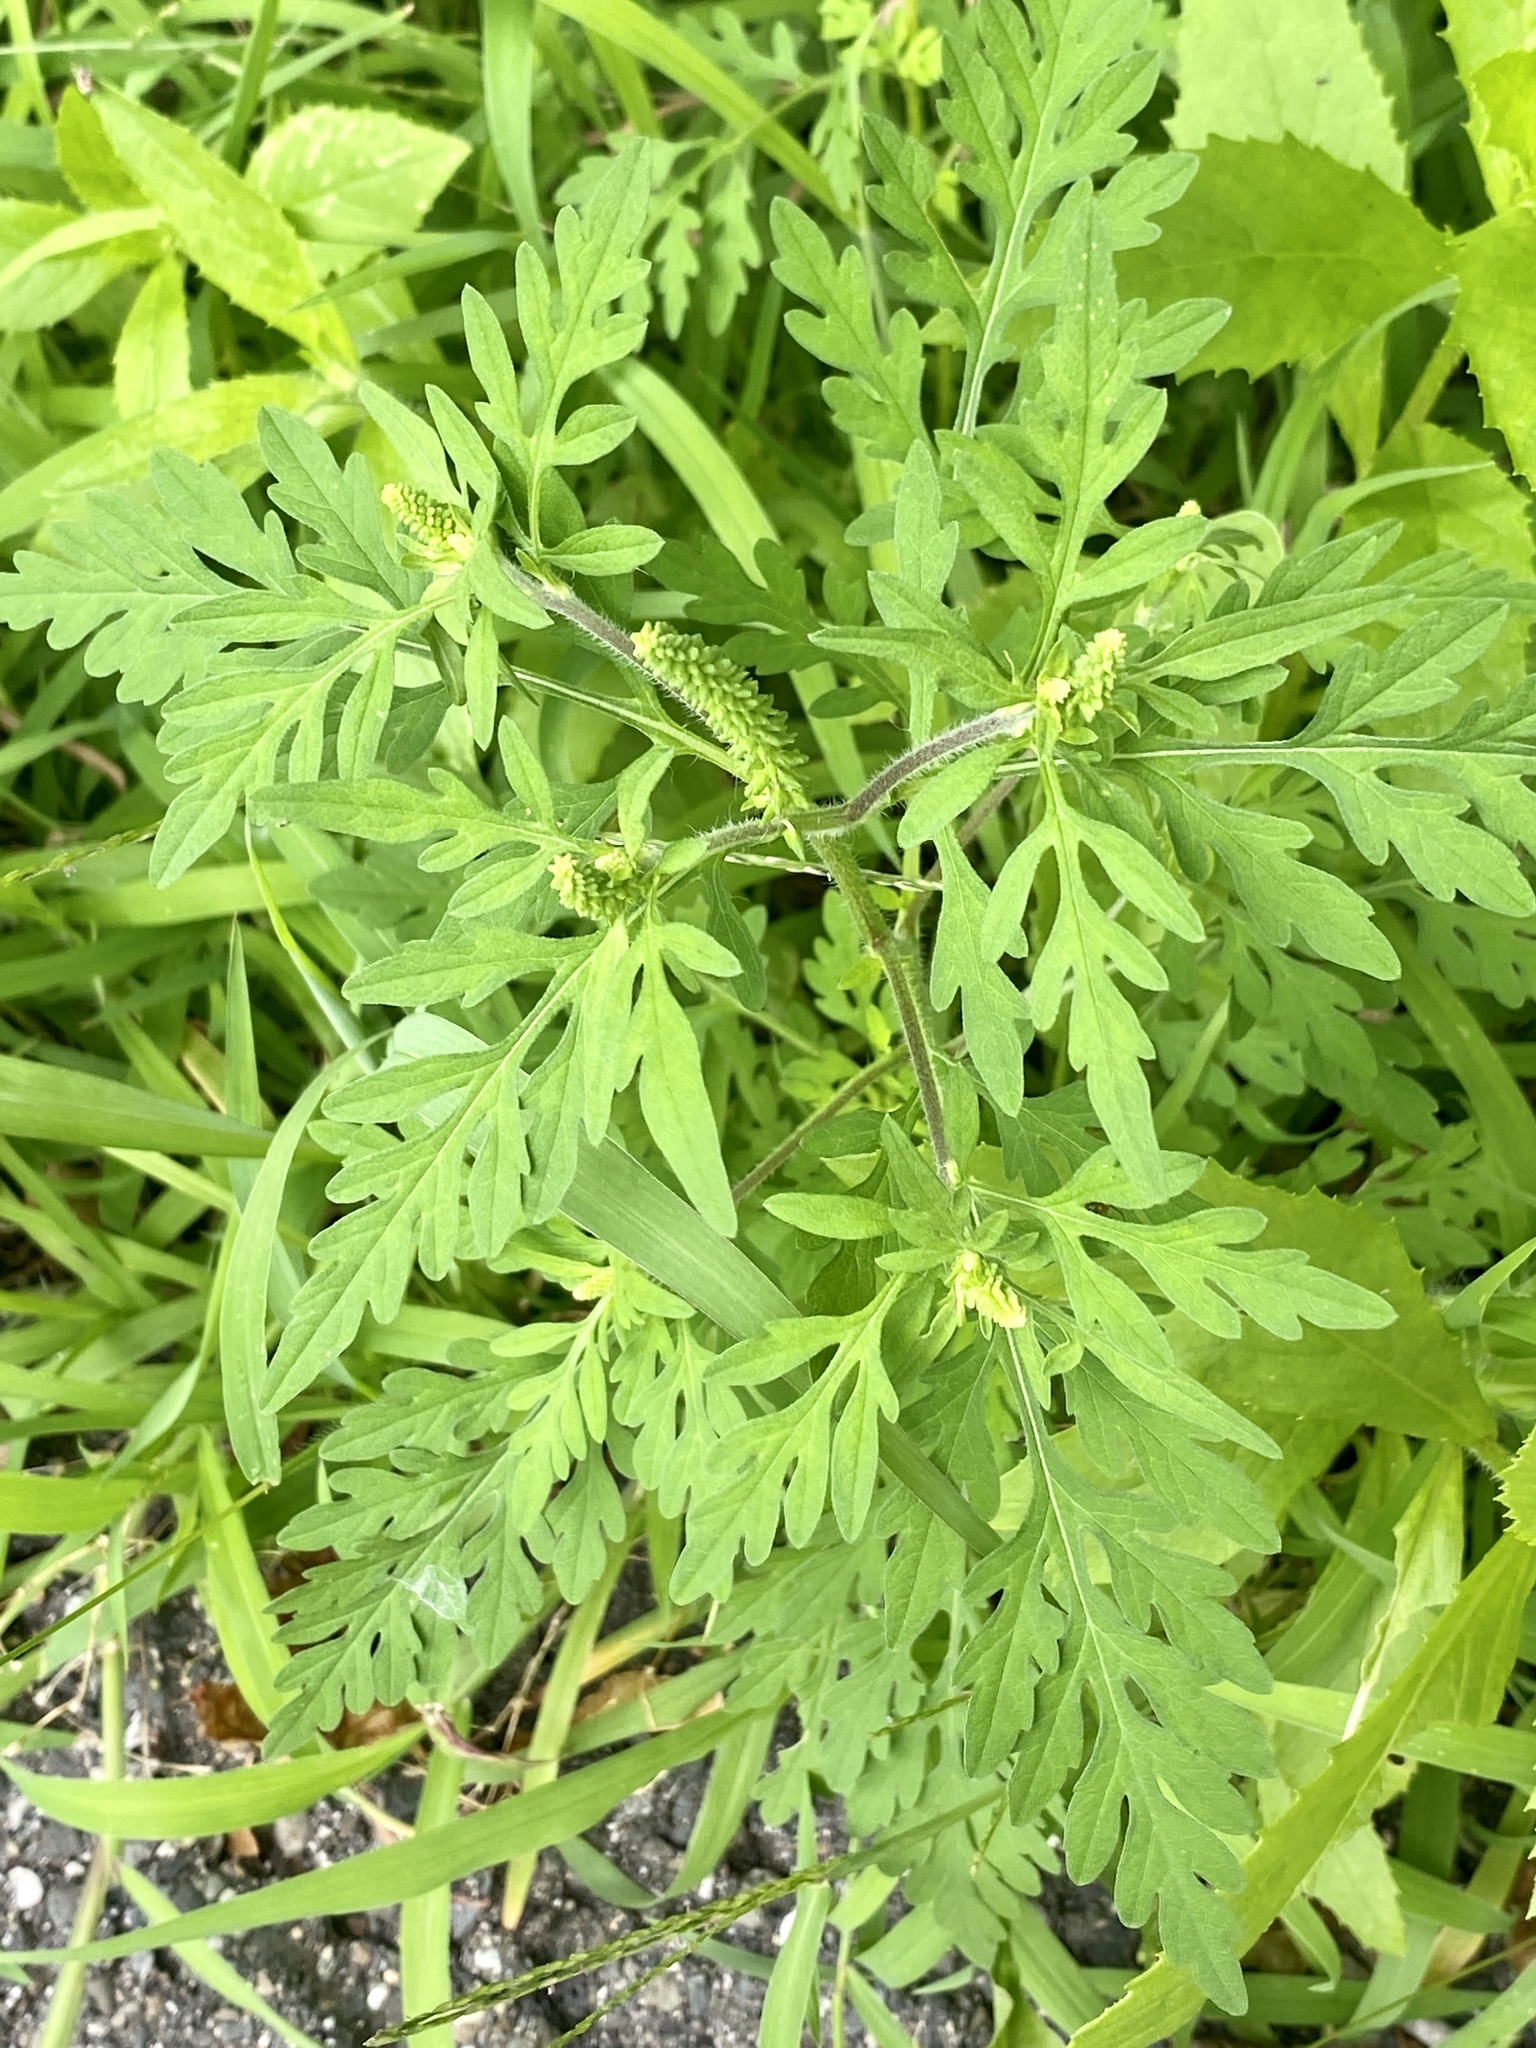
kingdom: Plantae
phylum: Tracheophyta
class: Magnoliopsida
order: Asterales
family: Asteraceae
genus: Ambrosia
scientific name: Ambrosia artemisiifolia
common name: Annual ragweed
